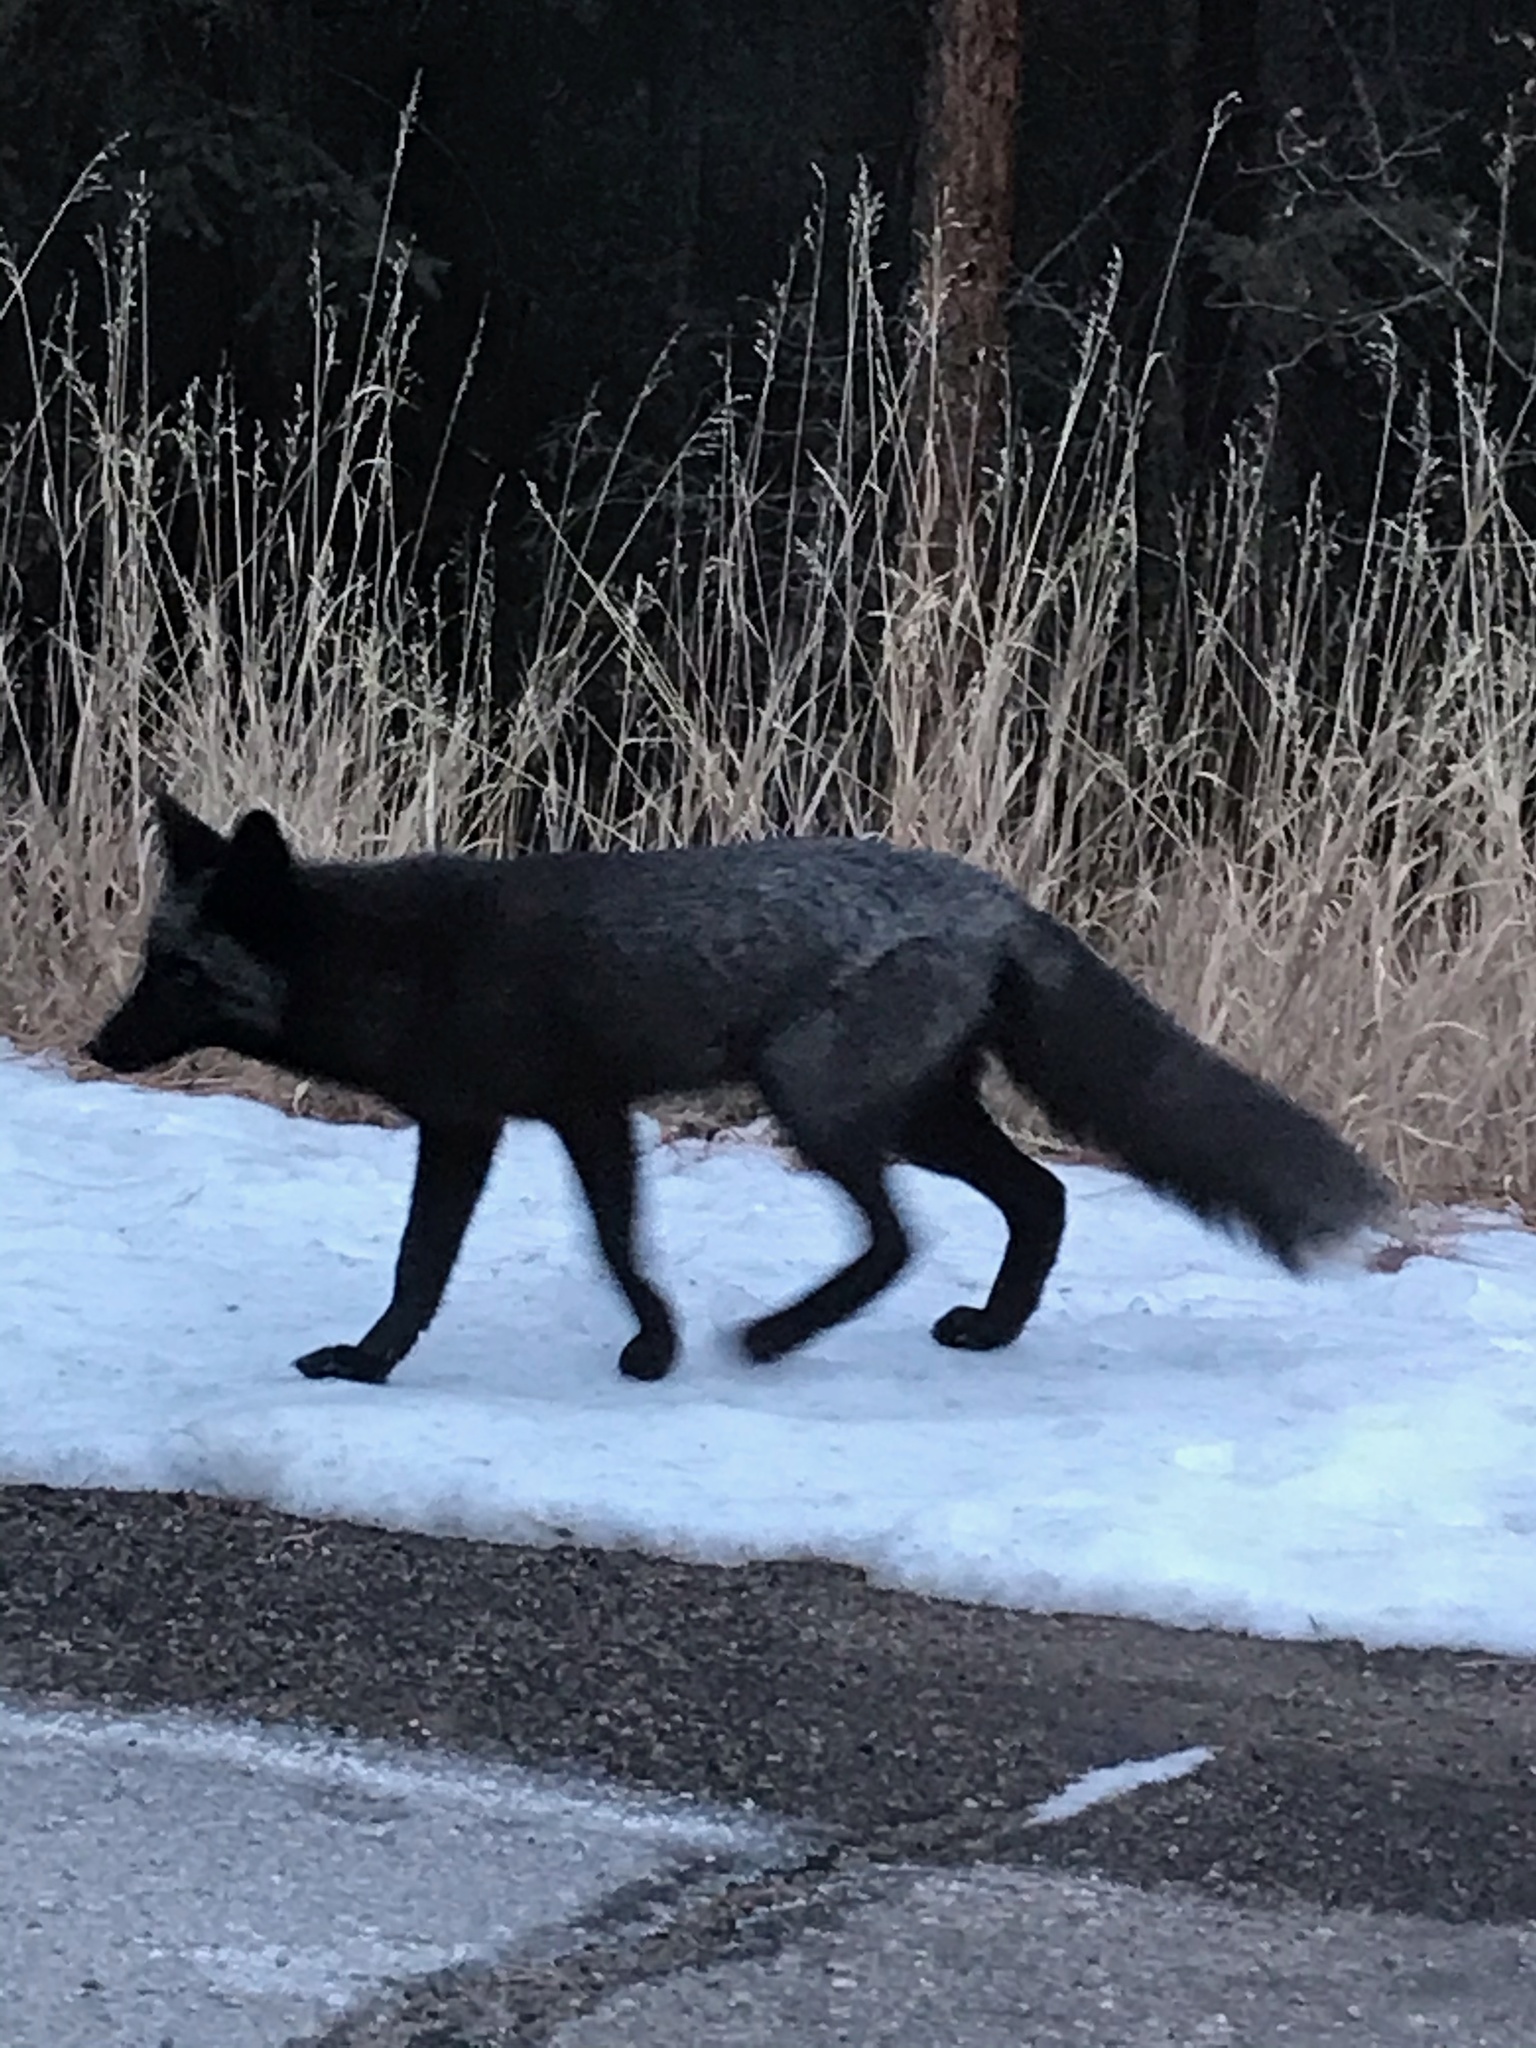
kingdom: Animalia
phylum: Chordata
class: Mammalia
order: Carnivora
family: Canidae
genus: Vulpes
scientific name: Vulpes vulpes
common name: Red fox
